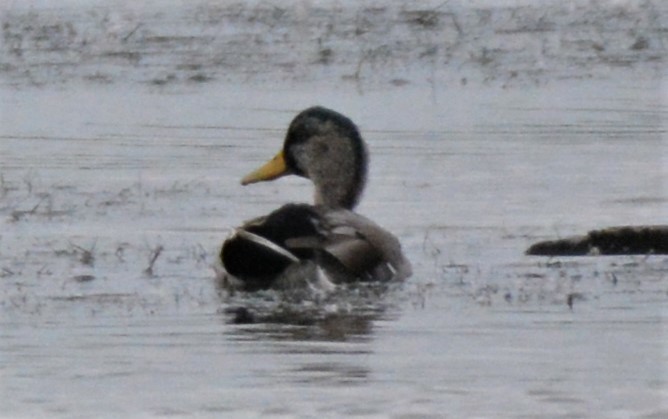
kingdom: Animalia
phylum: Chordata
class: Aves
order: Anseriformes
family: Anatidae
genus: Anas
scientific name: Anas platyrhynchos
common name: Mallard
